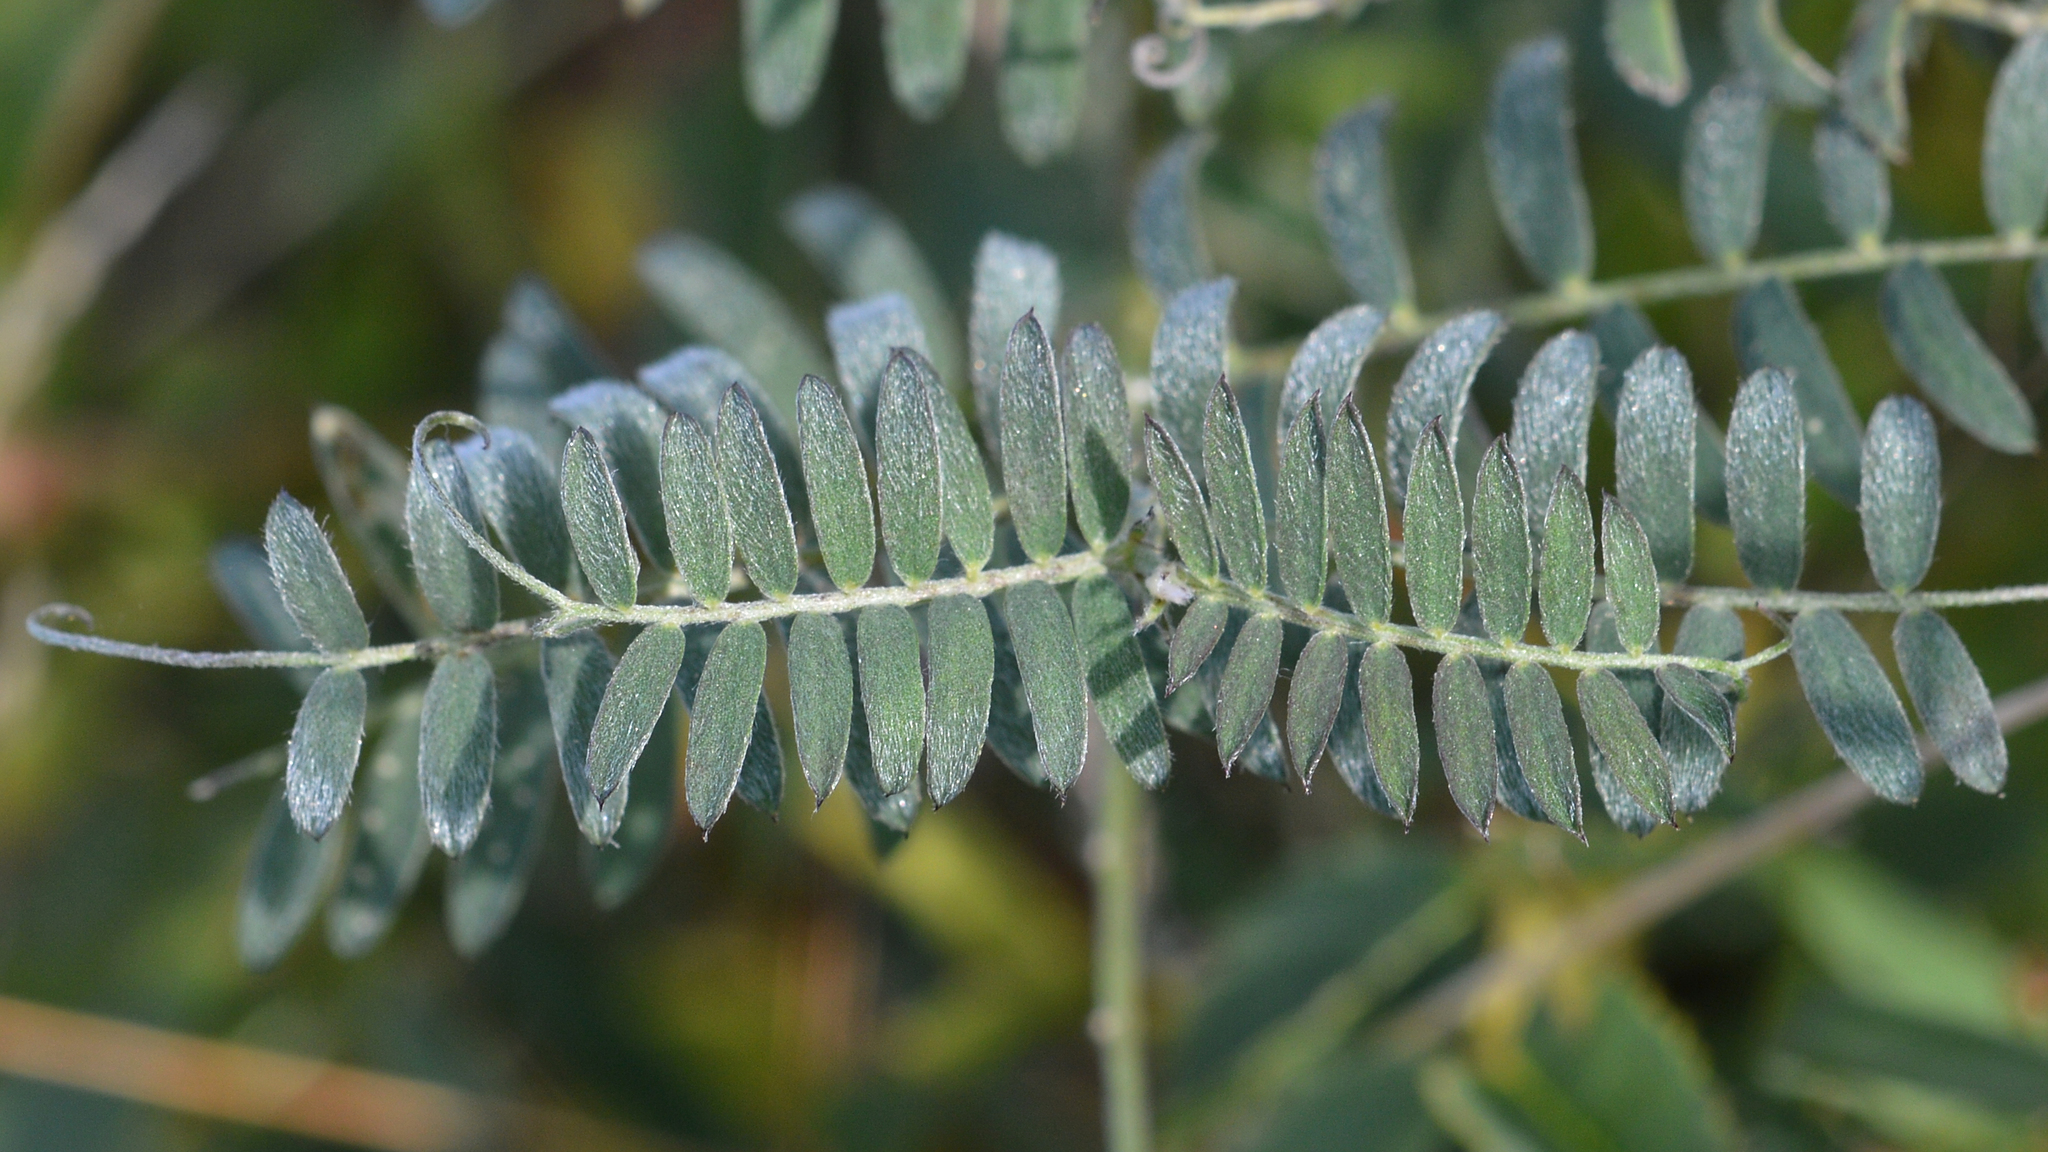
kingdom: Plantae
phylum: Tracheophyta
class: Magnoliopsida
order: Fabales
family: Fabaceae
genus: Vicia
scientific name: Vicia cracca
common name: Bird vetch
